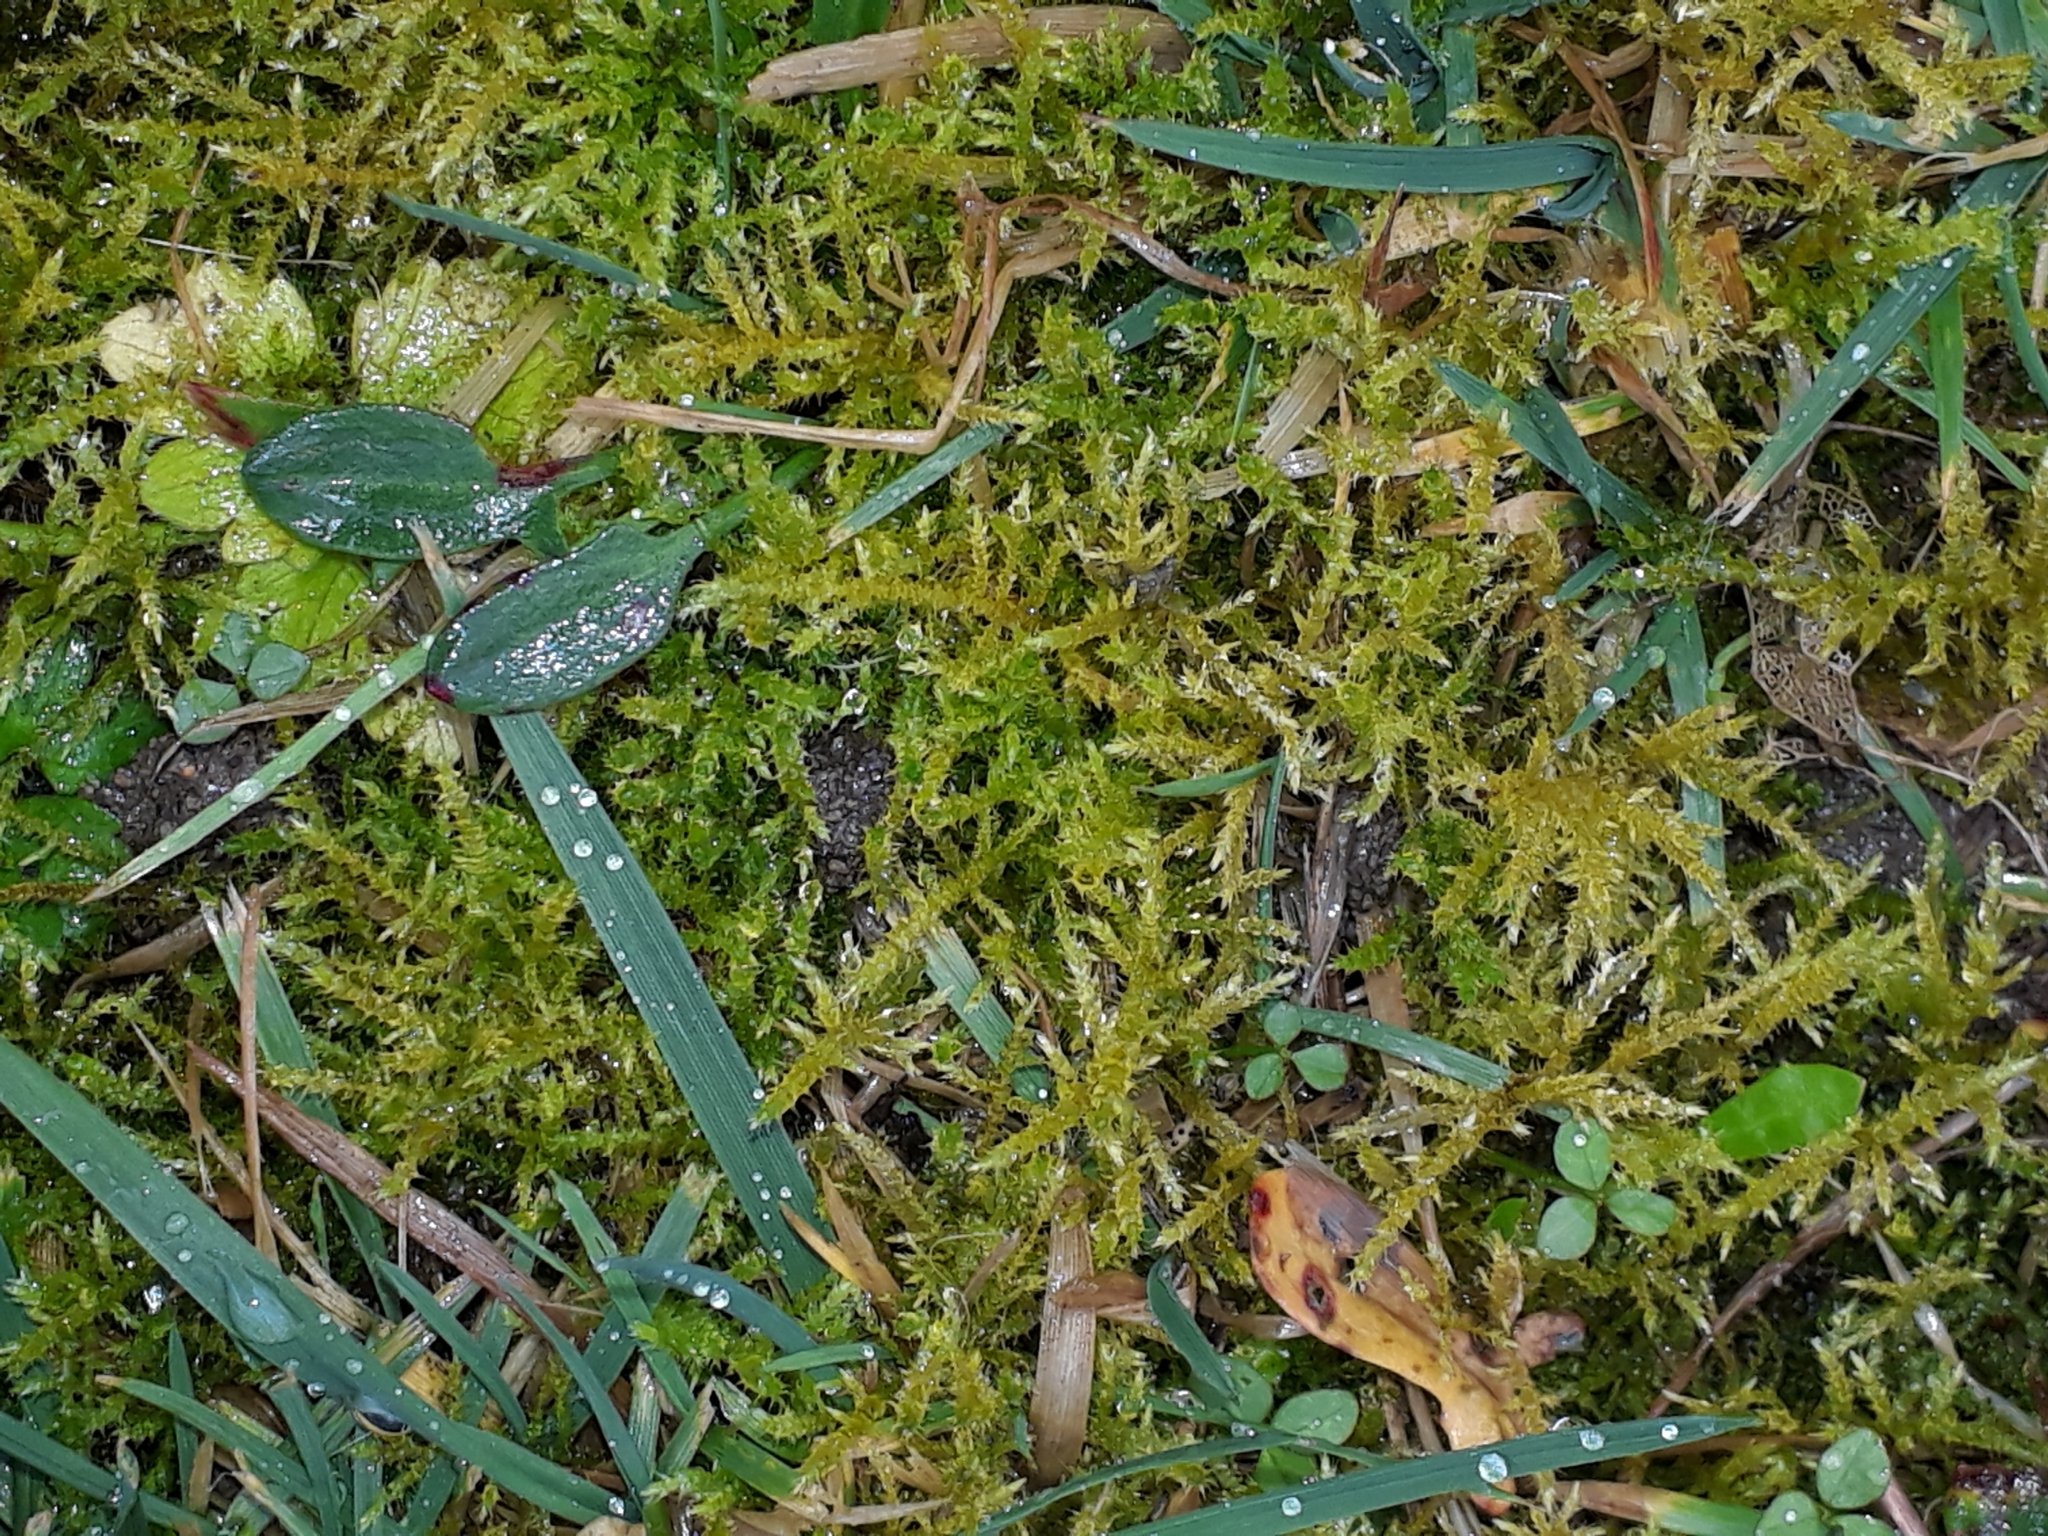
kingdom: Plantae
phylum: Bryophyta
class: Bryopsida
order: Hypnales
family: Brachytheciaceae
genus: Kindbergia
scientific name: Kindbergia praelonga
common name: Slender beaked moss
